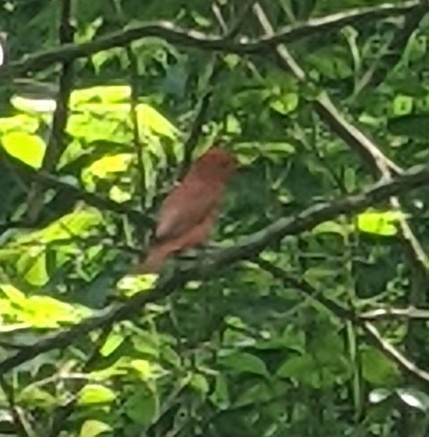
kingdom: Animalia
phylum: Chordata
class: Aves
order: Passeriformes
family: Cardinalidae
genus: Piranga
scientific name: Piranga rubra
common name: Summer tanager
